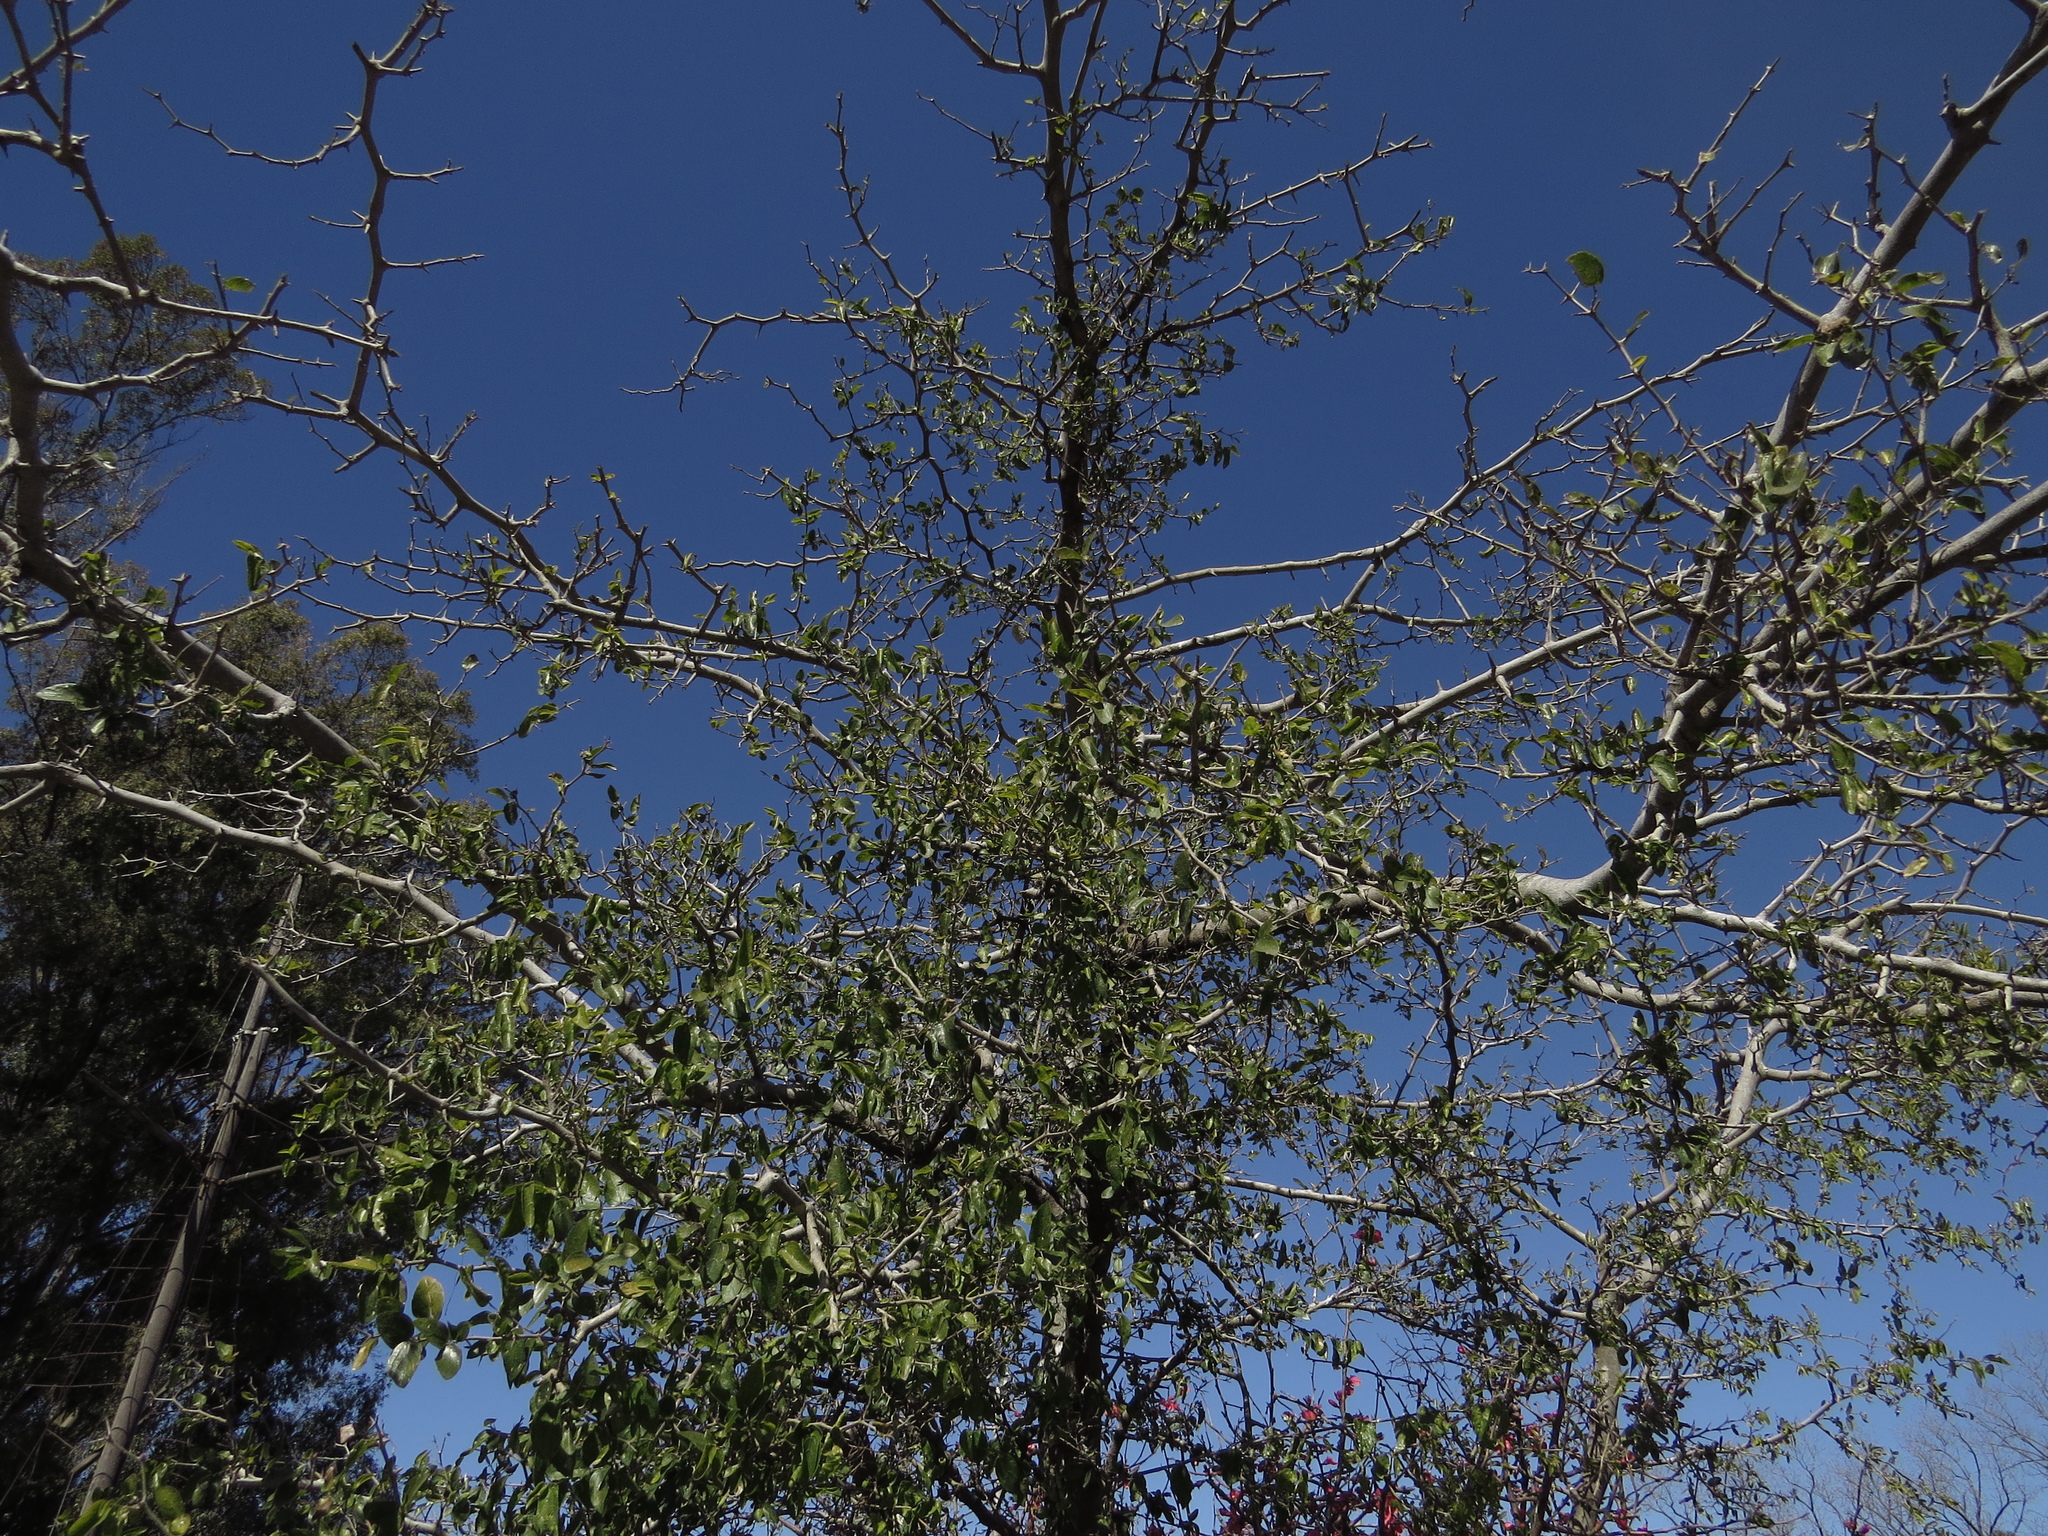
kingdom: Plantae
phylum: Tracheophyta
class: Magnoliopsida
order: Rosales
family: Cannabaceae
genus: Celtis
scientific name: Celtis tala
